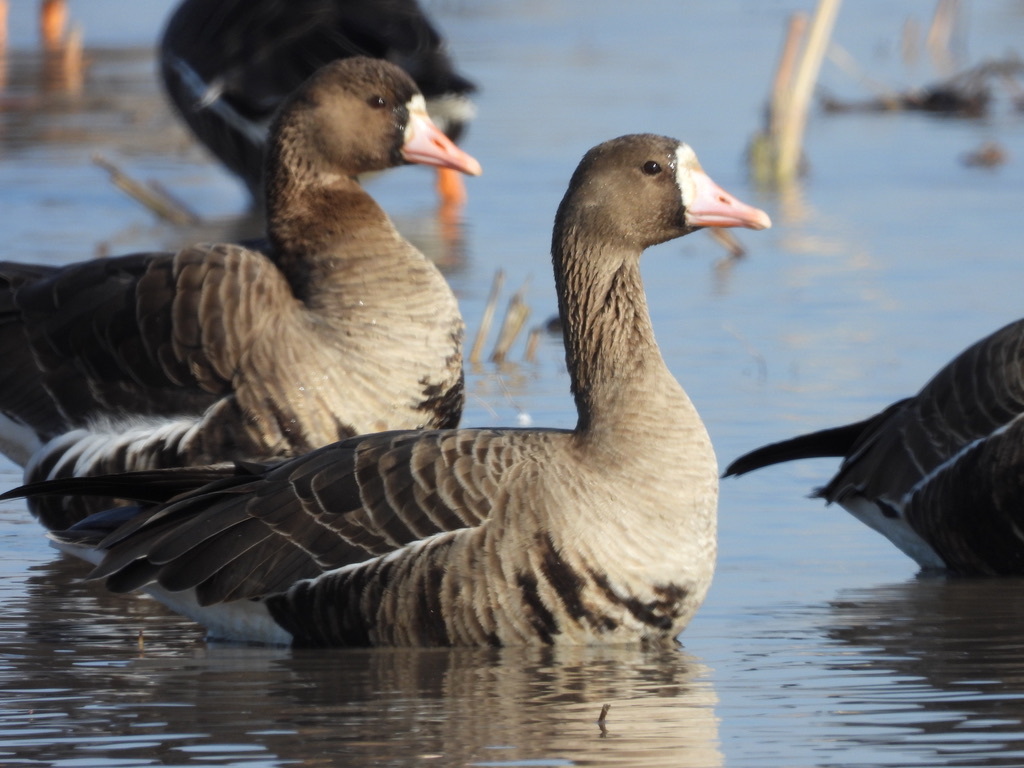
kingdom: Animalia
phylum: Chordata
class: Aves
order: Anseriformes
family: Anatidae
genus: Anser
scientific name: Anser albifrons
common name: Greater white-fronted goose
